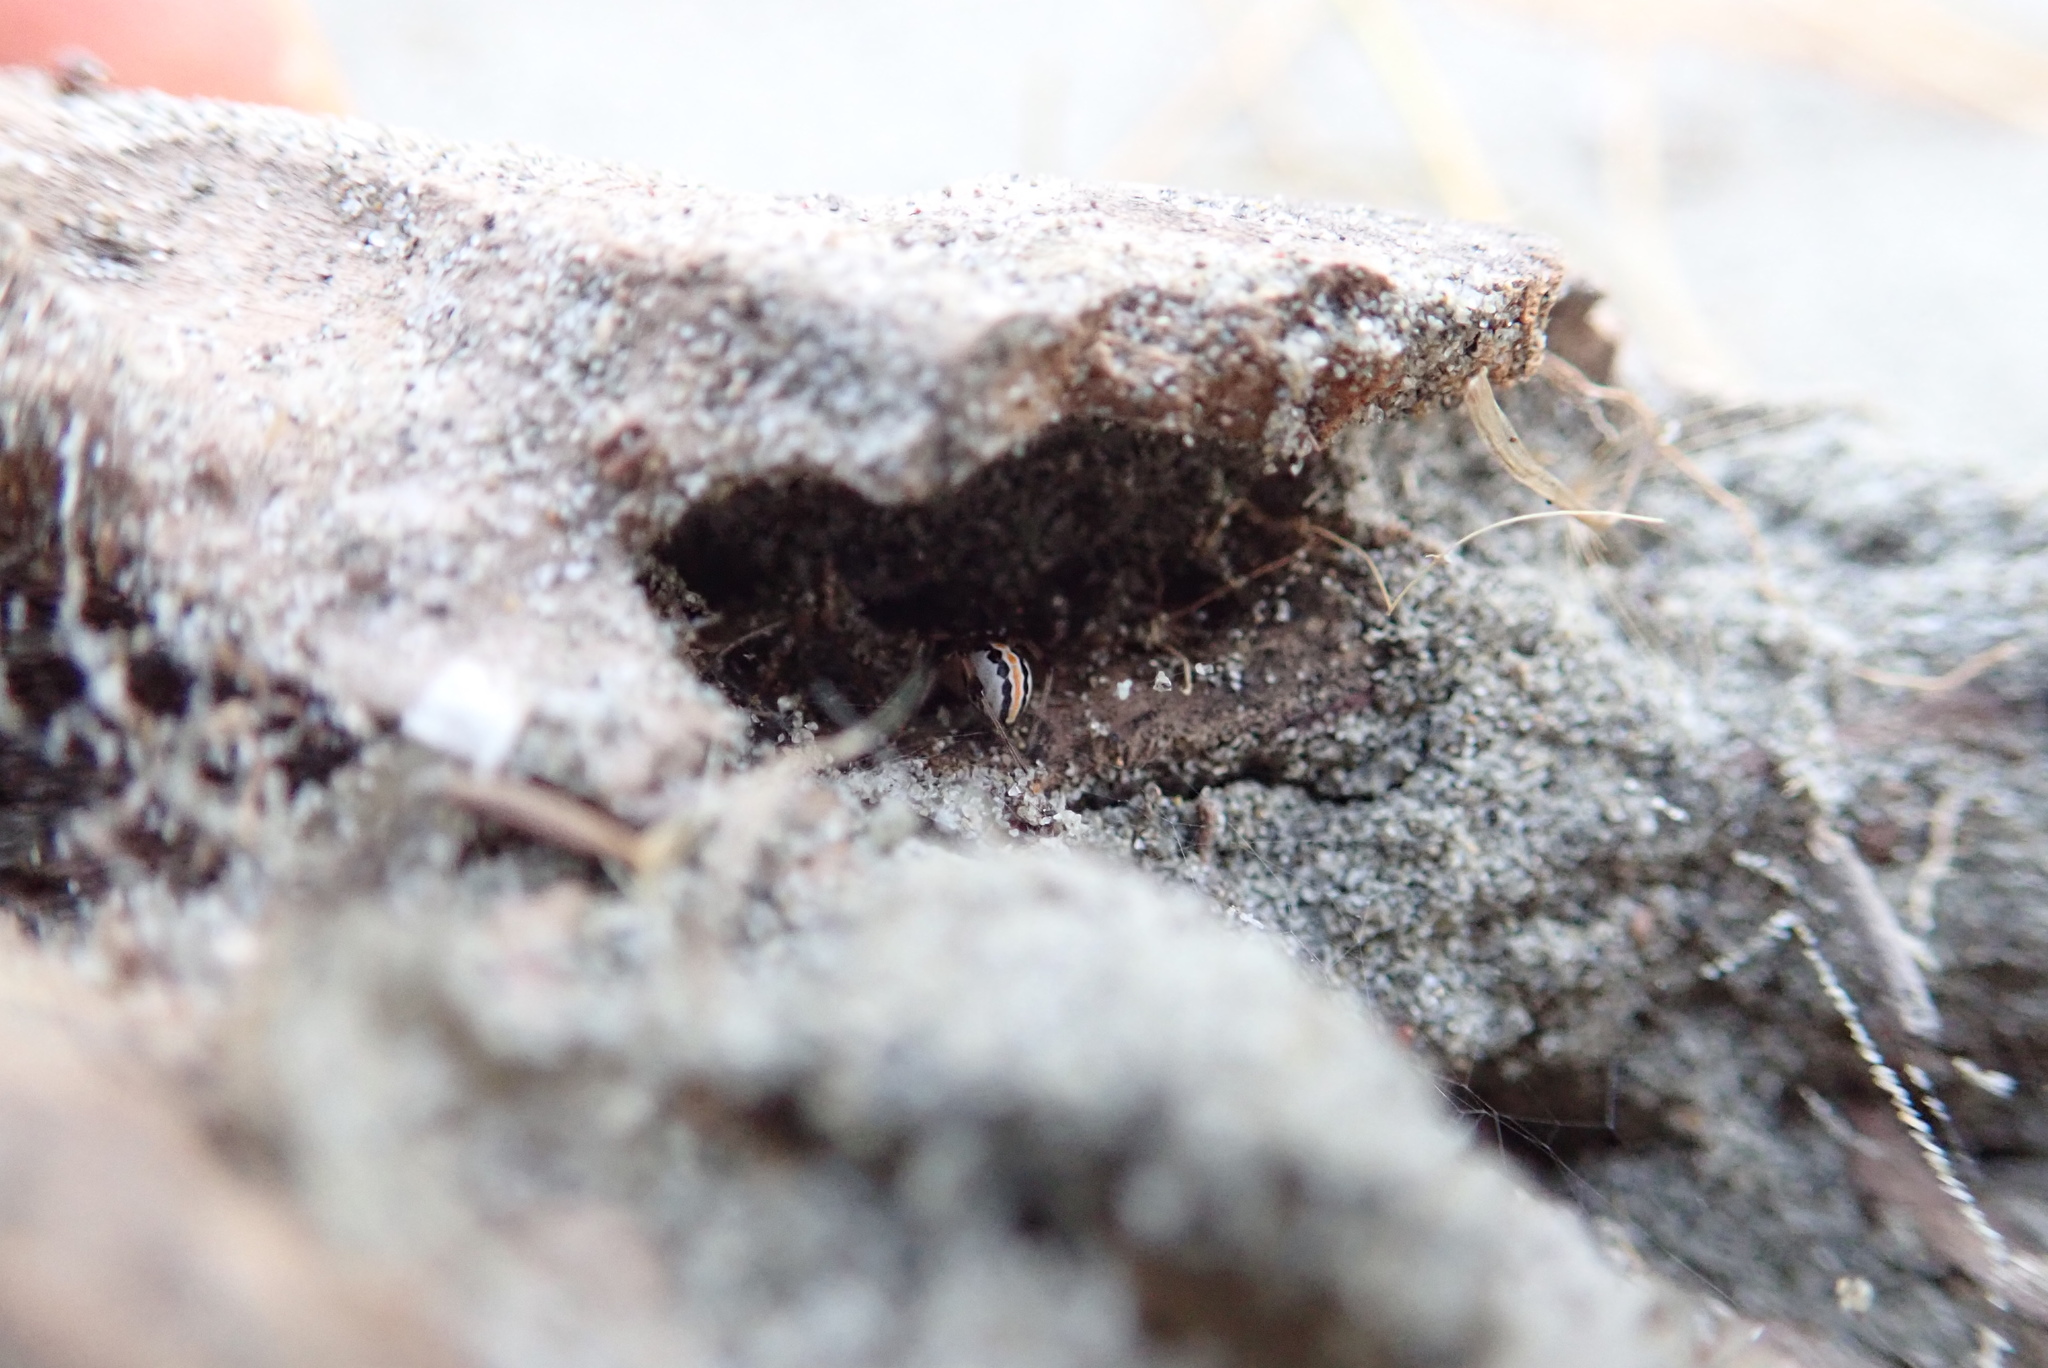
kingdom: Animalia
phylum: Arthropoda
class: Arachnida
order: Araneae
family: Theridiidae
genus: Latrodectus
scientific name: Latrodectus katipo
